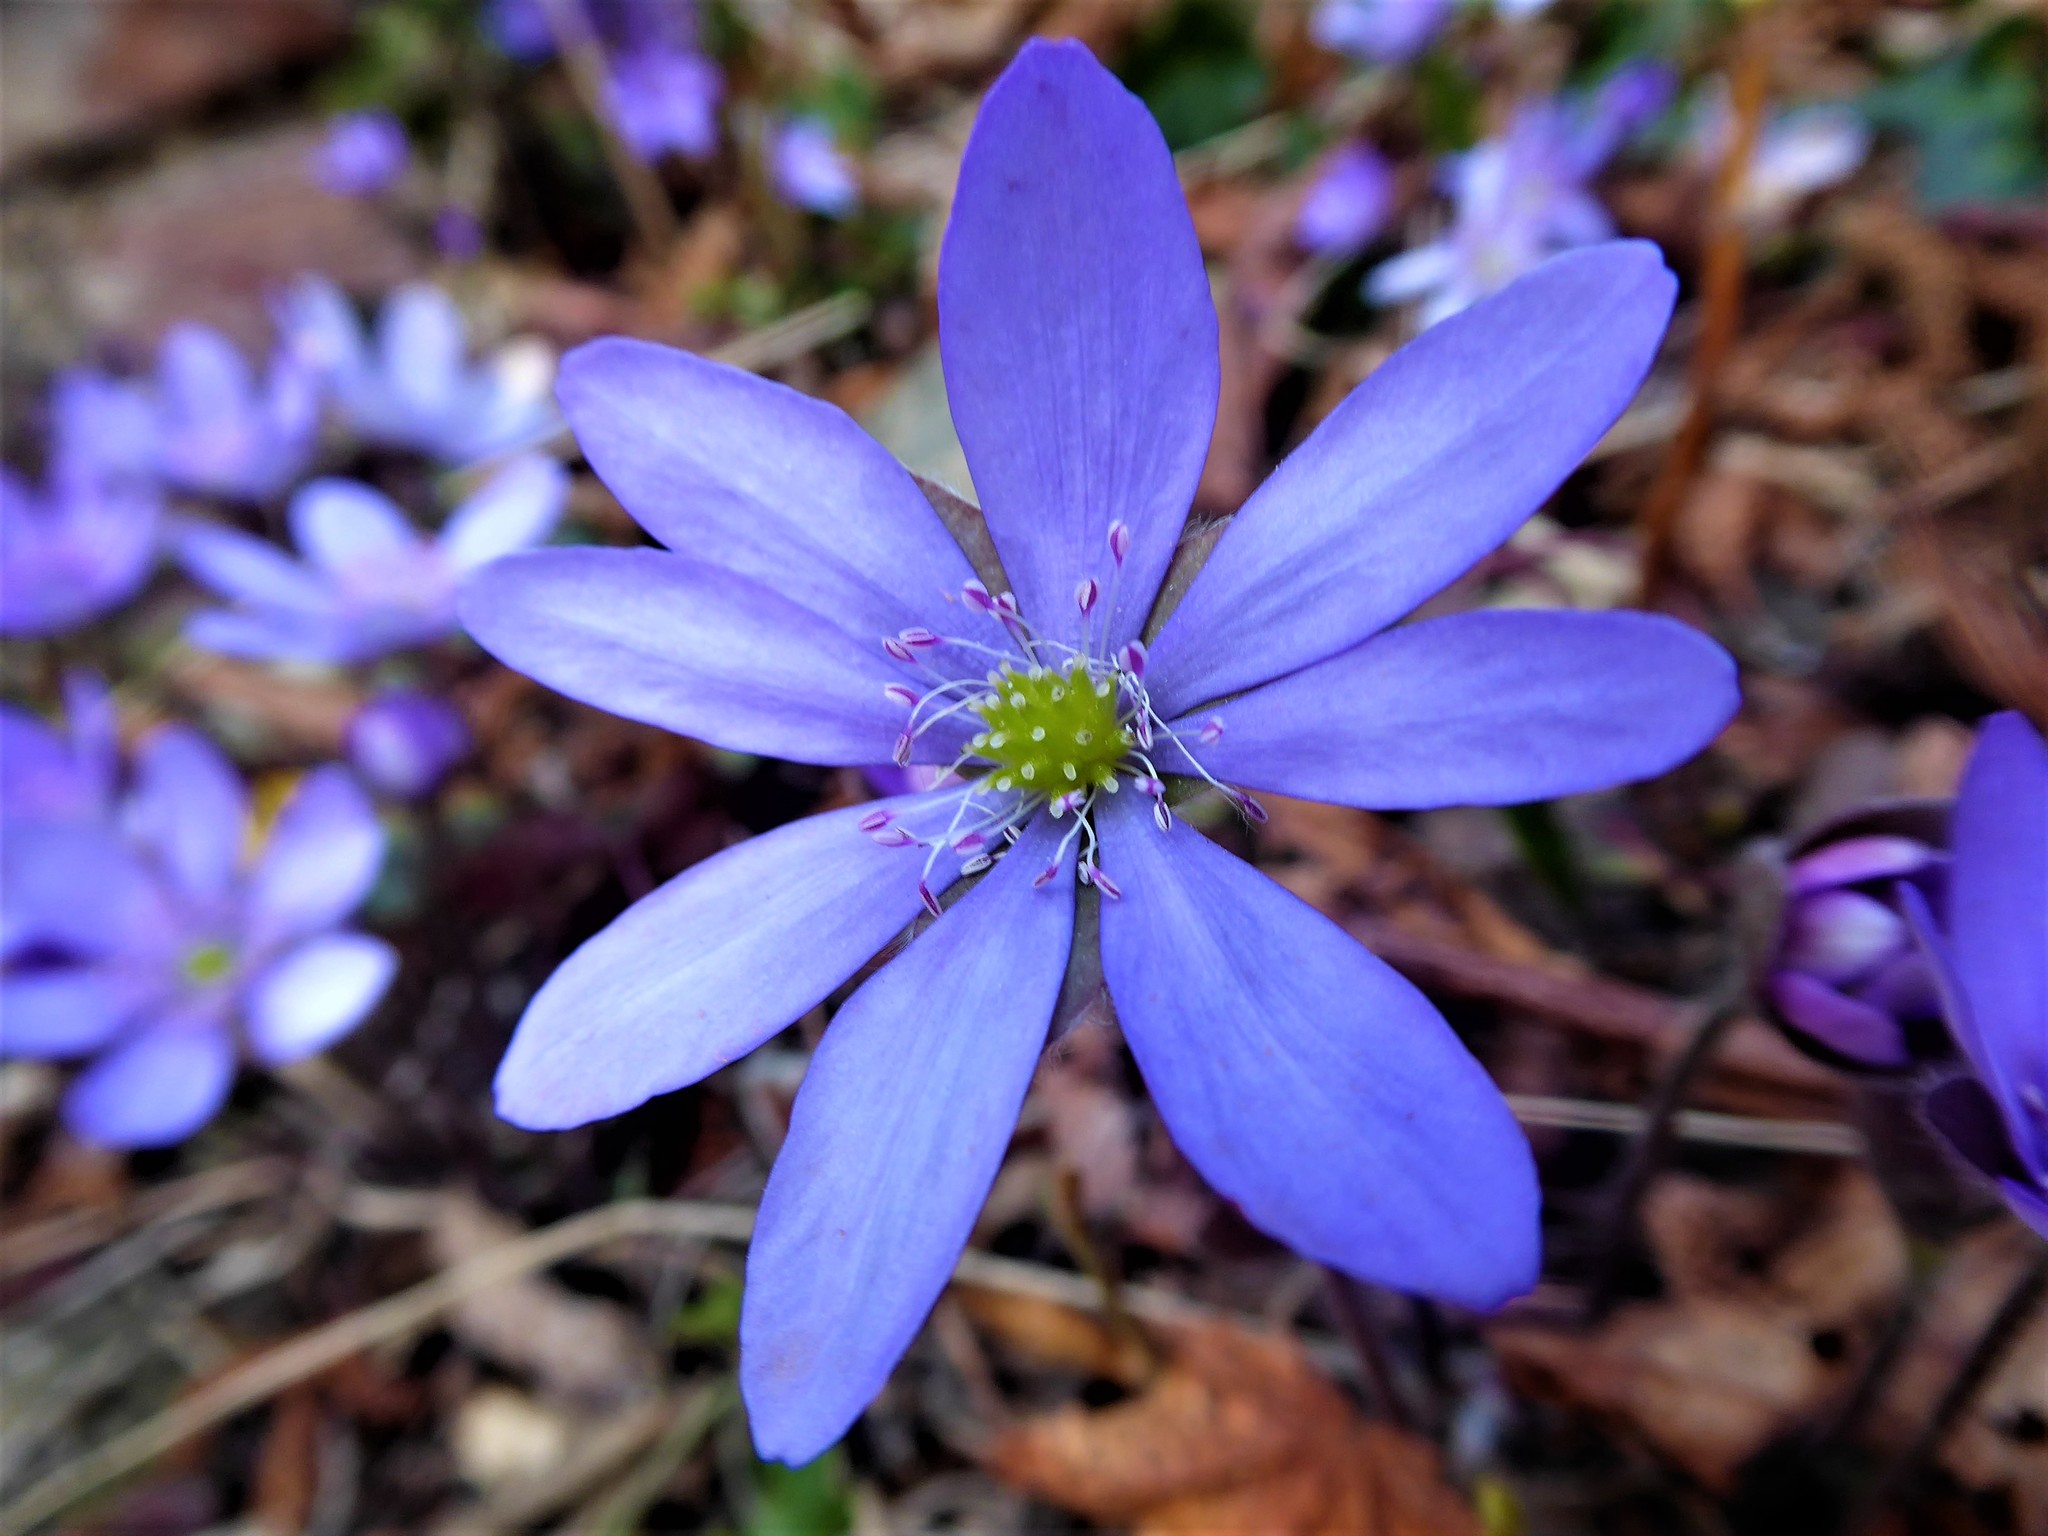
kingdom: Plantae
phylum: Tracheophyta
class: Magnoliopsida
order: Ranunculales
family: Ranunculaceae
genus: Hepatica
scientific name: Hepatica nobilis
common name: Liverleaf
